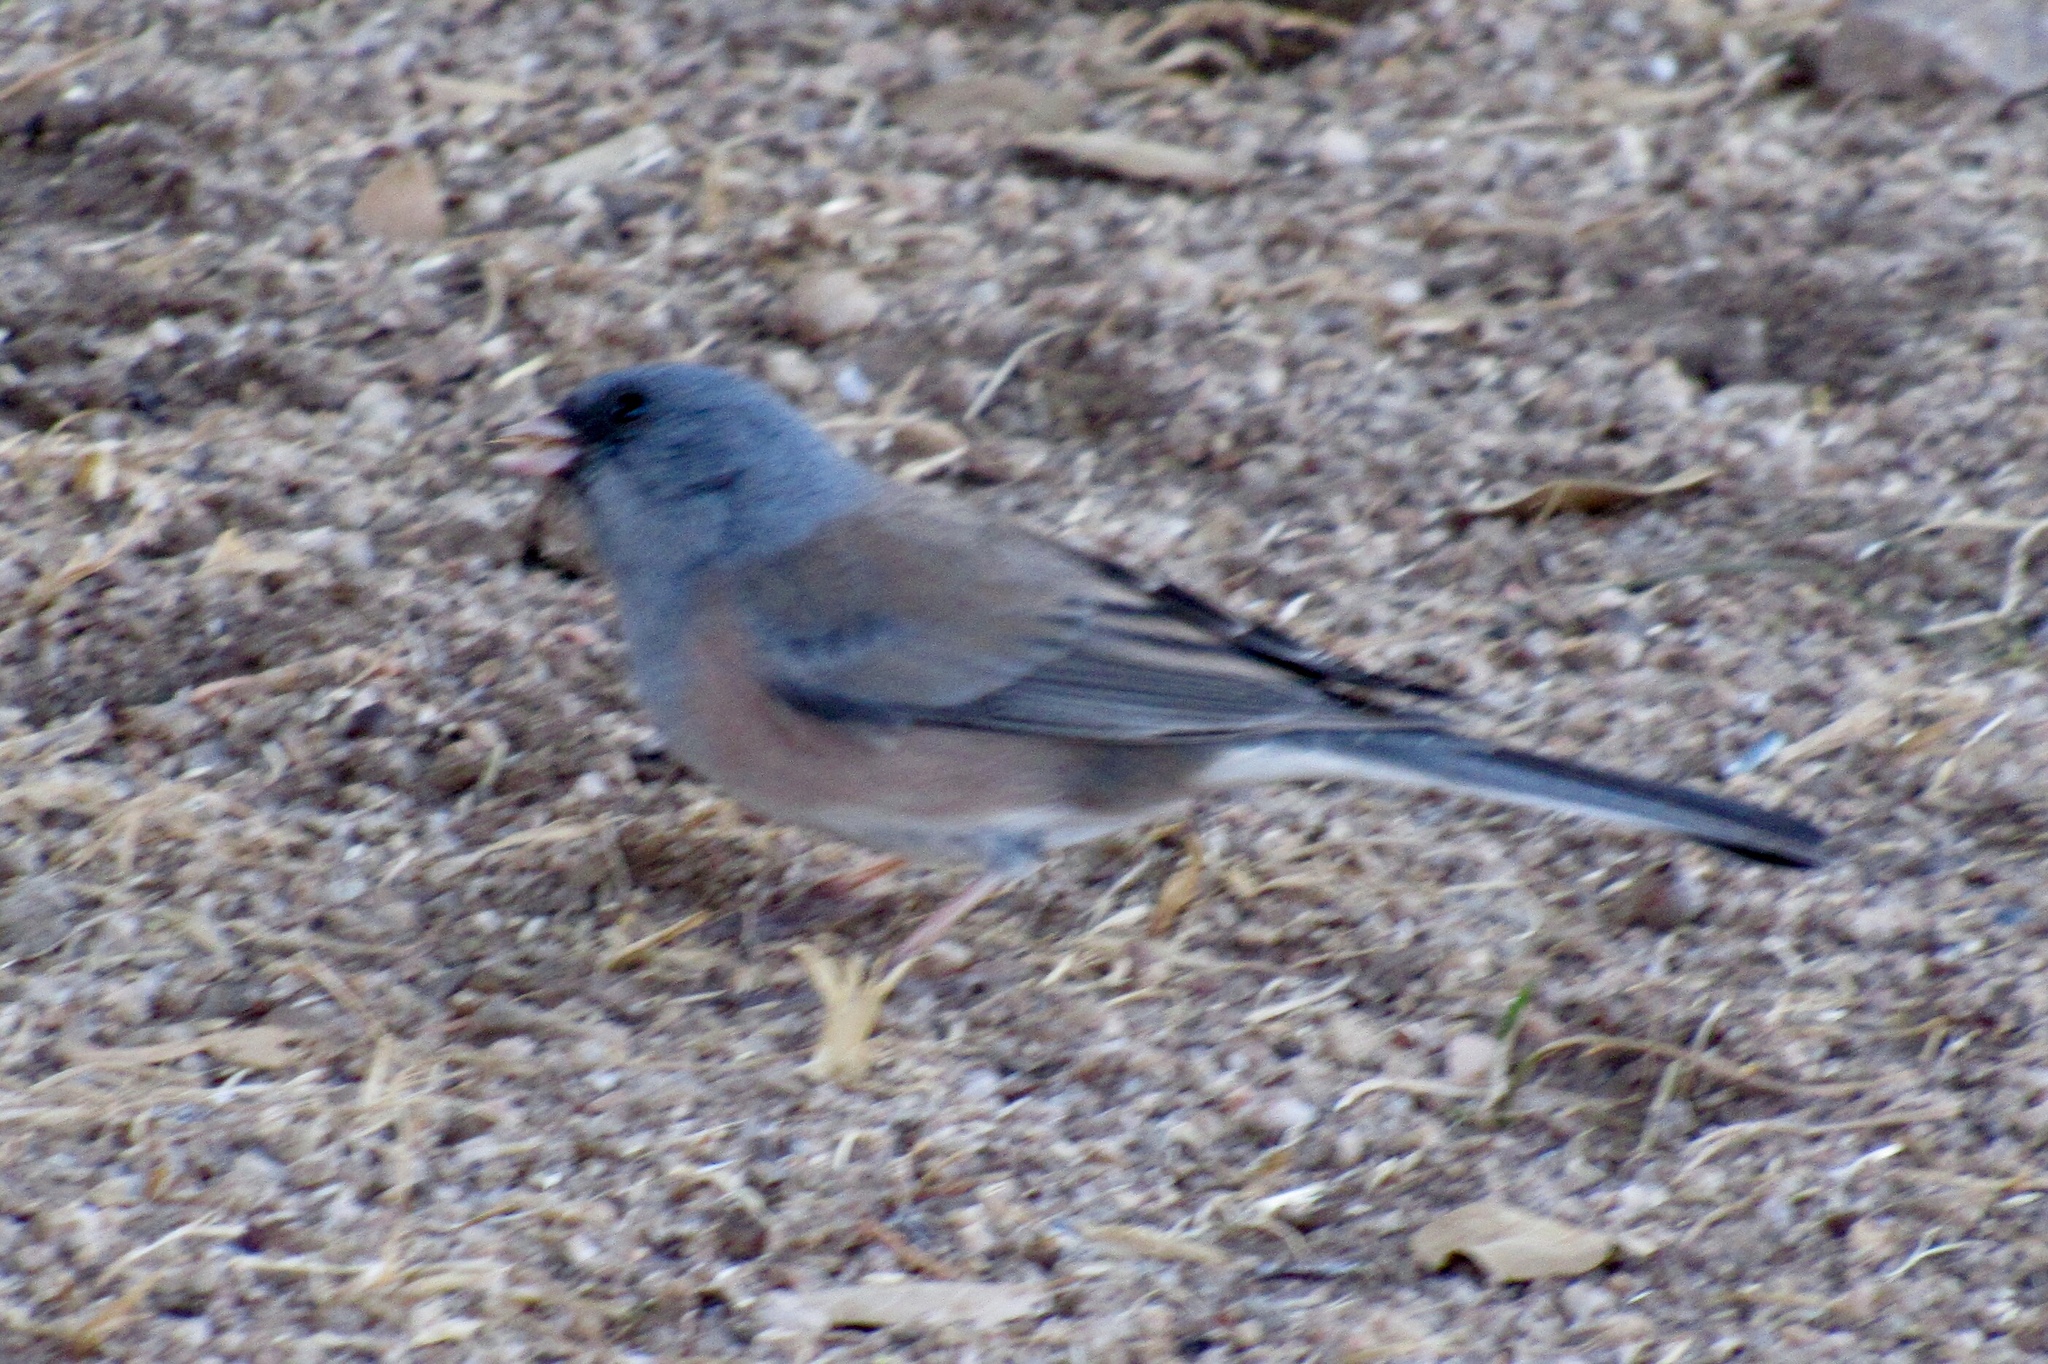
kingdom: Animalia
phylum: Chordata
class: Aves
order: Passeriformes
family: Passerellidae
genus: Junco
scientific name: Junco hyemalis
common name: Dark-eyed junco
